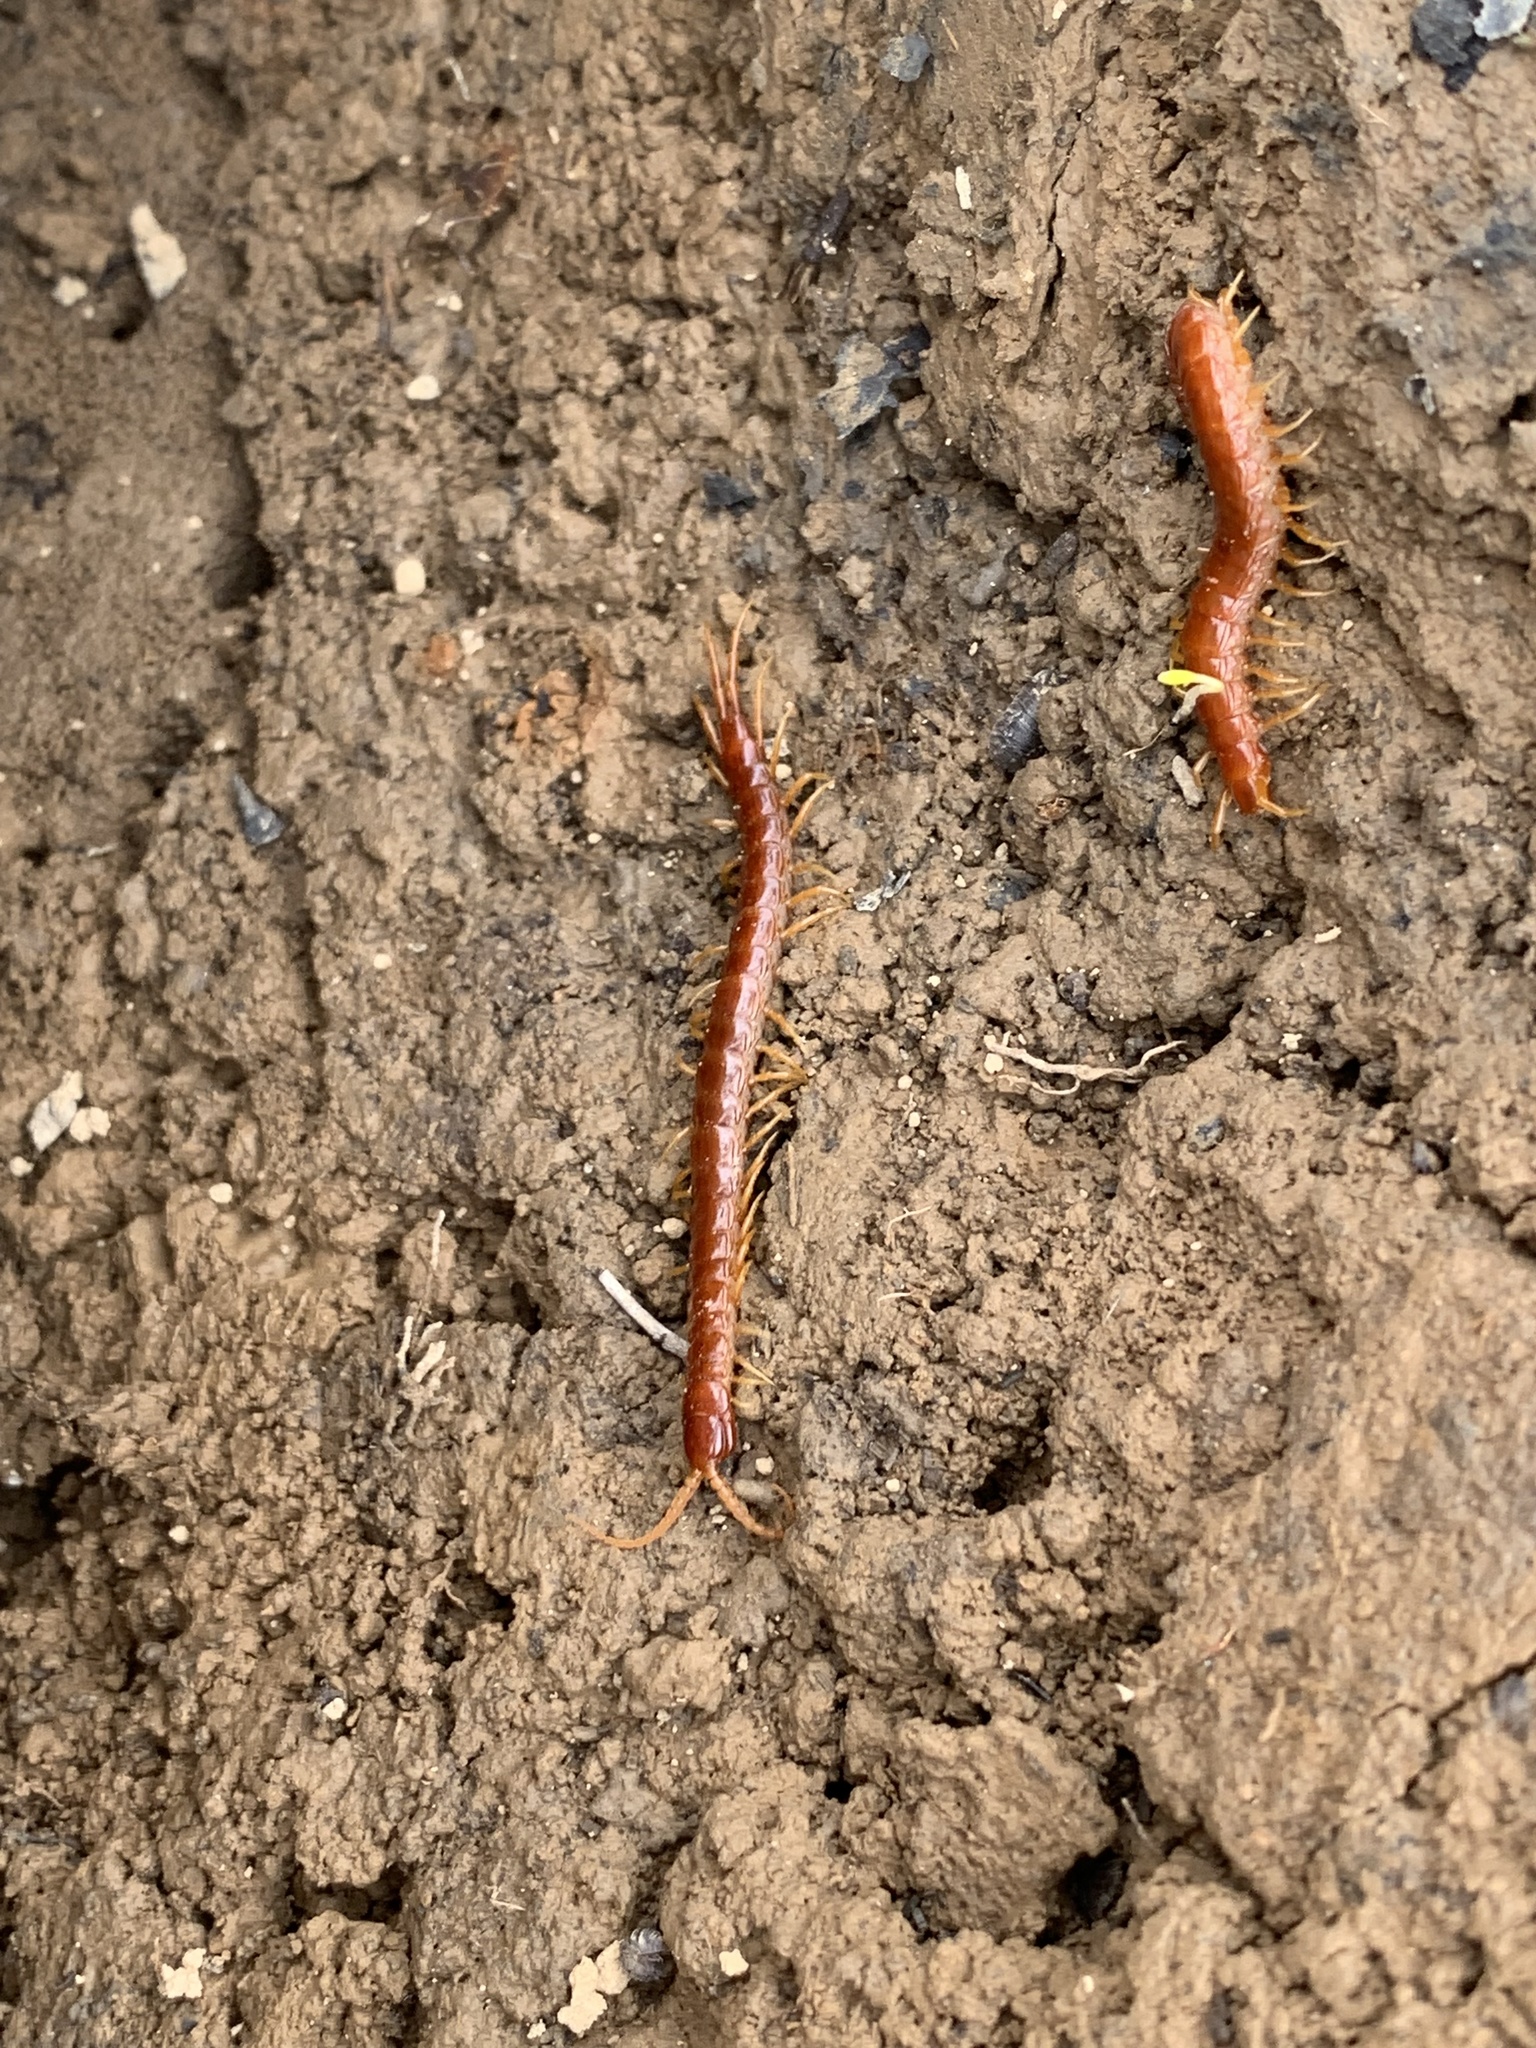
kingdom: Animalia
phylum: Arthropoda
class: Chilopoda
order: Scolopendromorpha
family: Scolopocryptopidae
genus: Scolopocryptops
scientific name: Scolopocryptops sexspinosus
